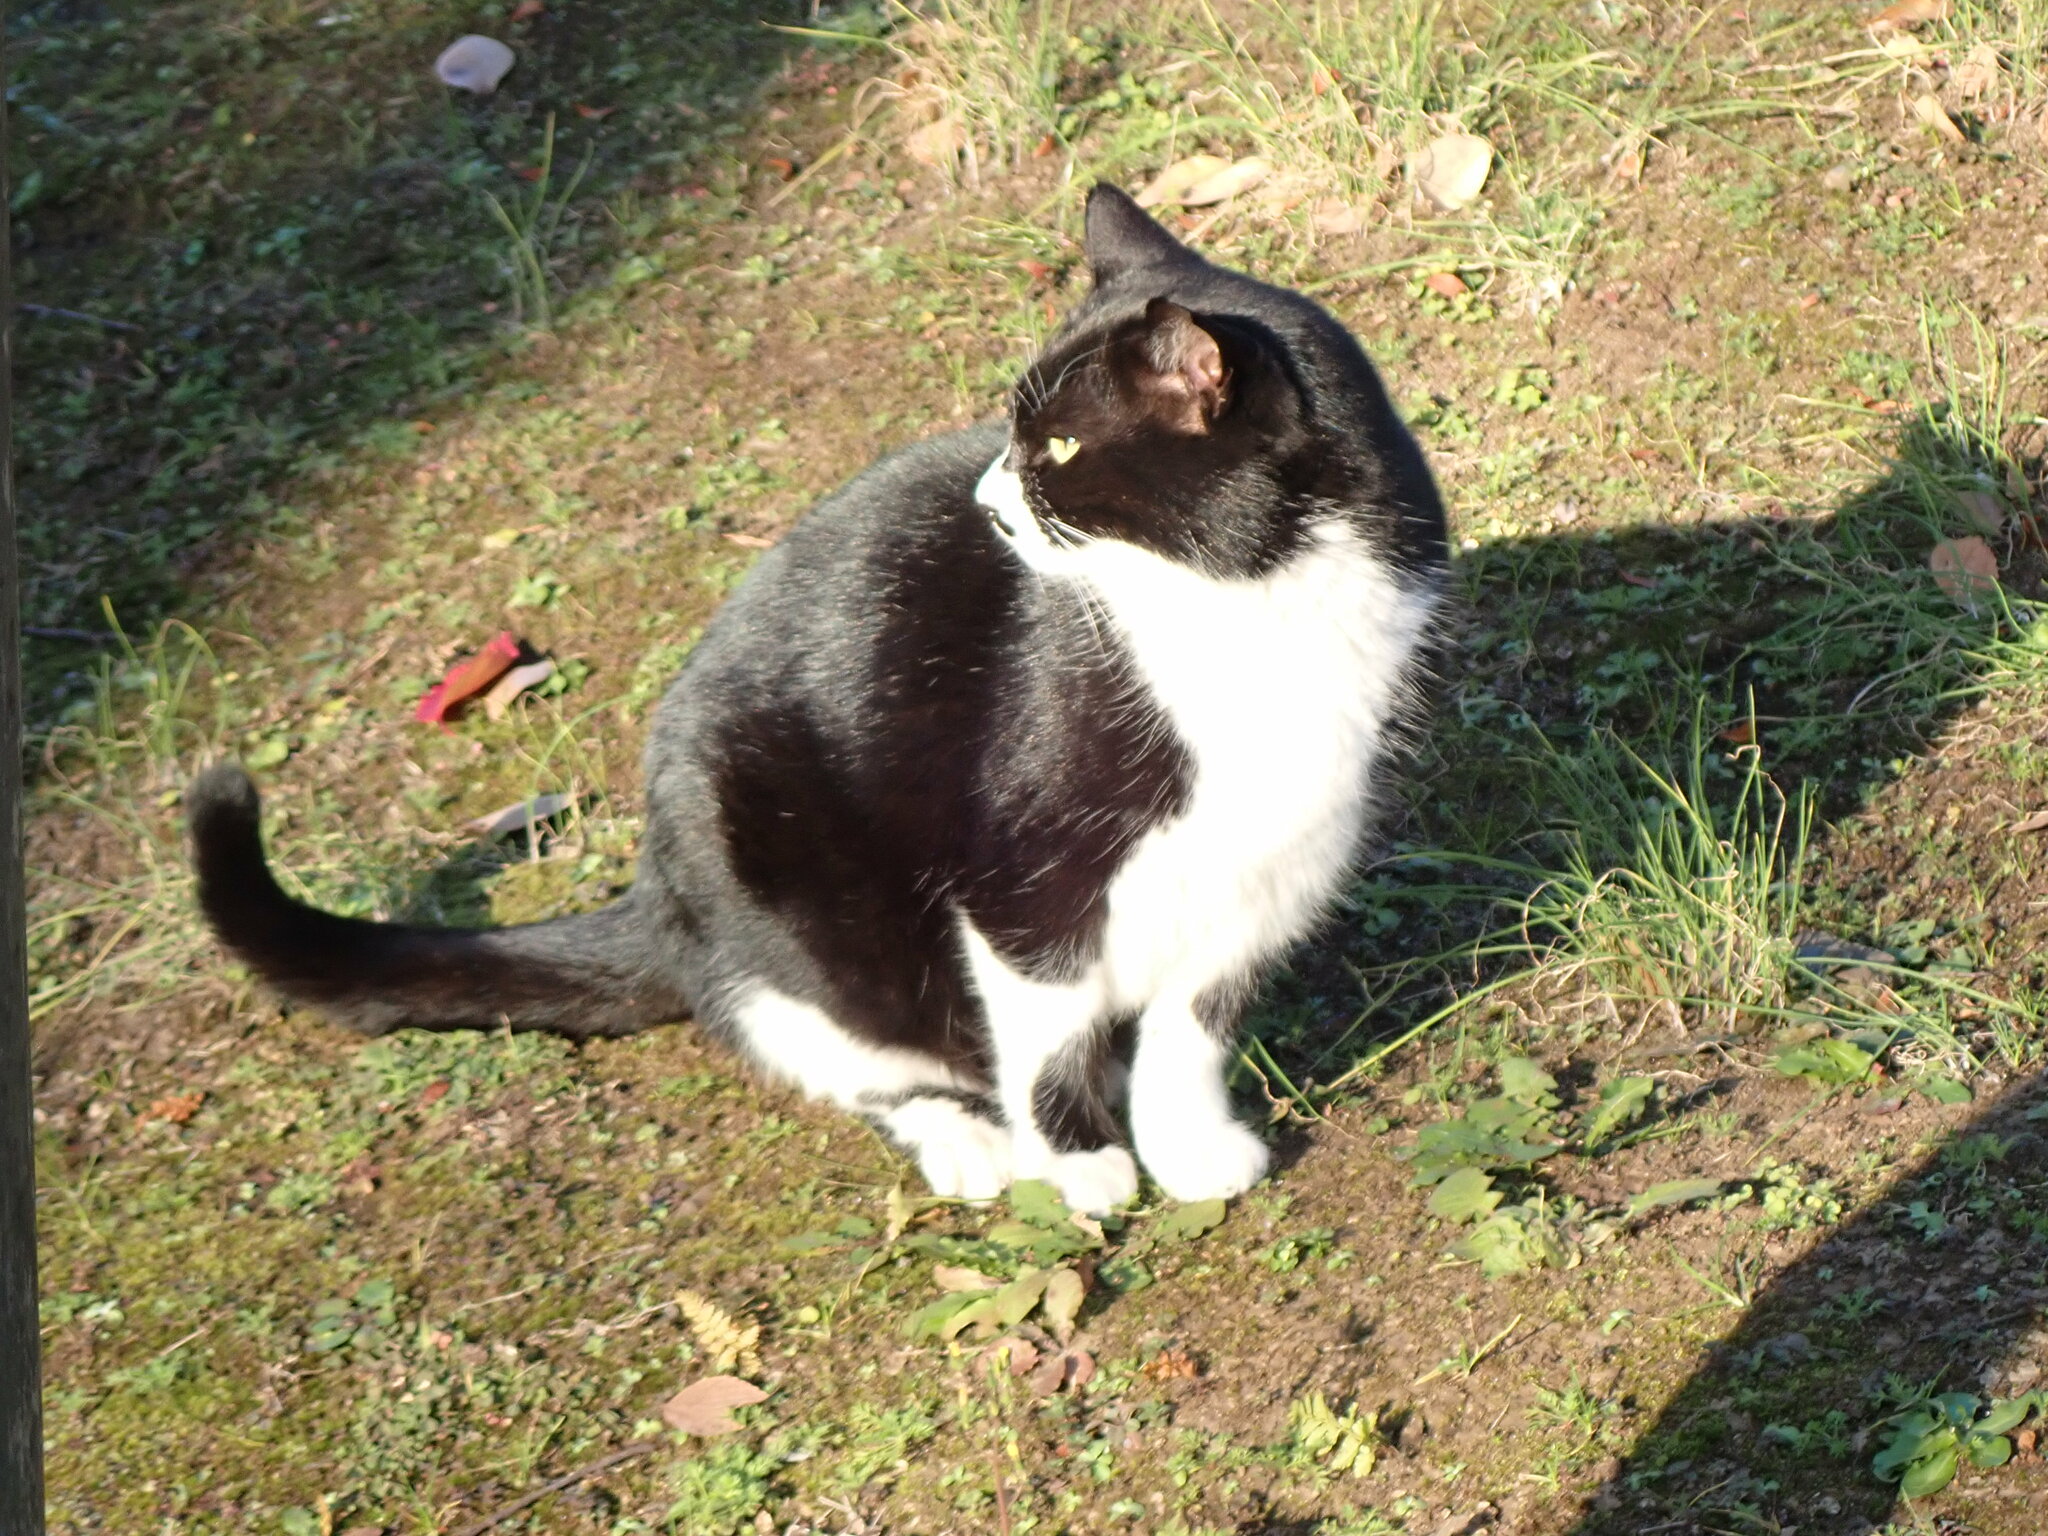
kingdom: Animalia
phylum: Chordata
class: Mammalia
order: Carnivora
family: Felidae
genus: Felis
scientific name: Felis catus
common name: Domestic cat
